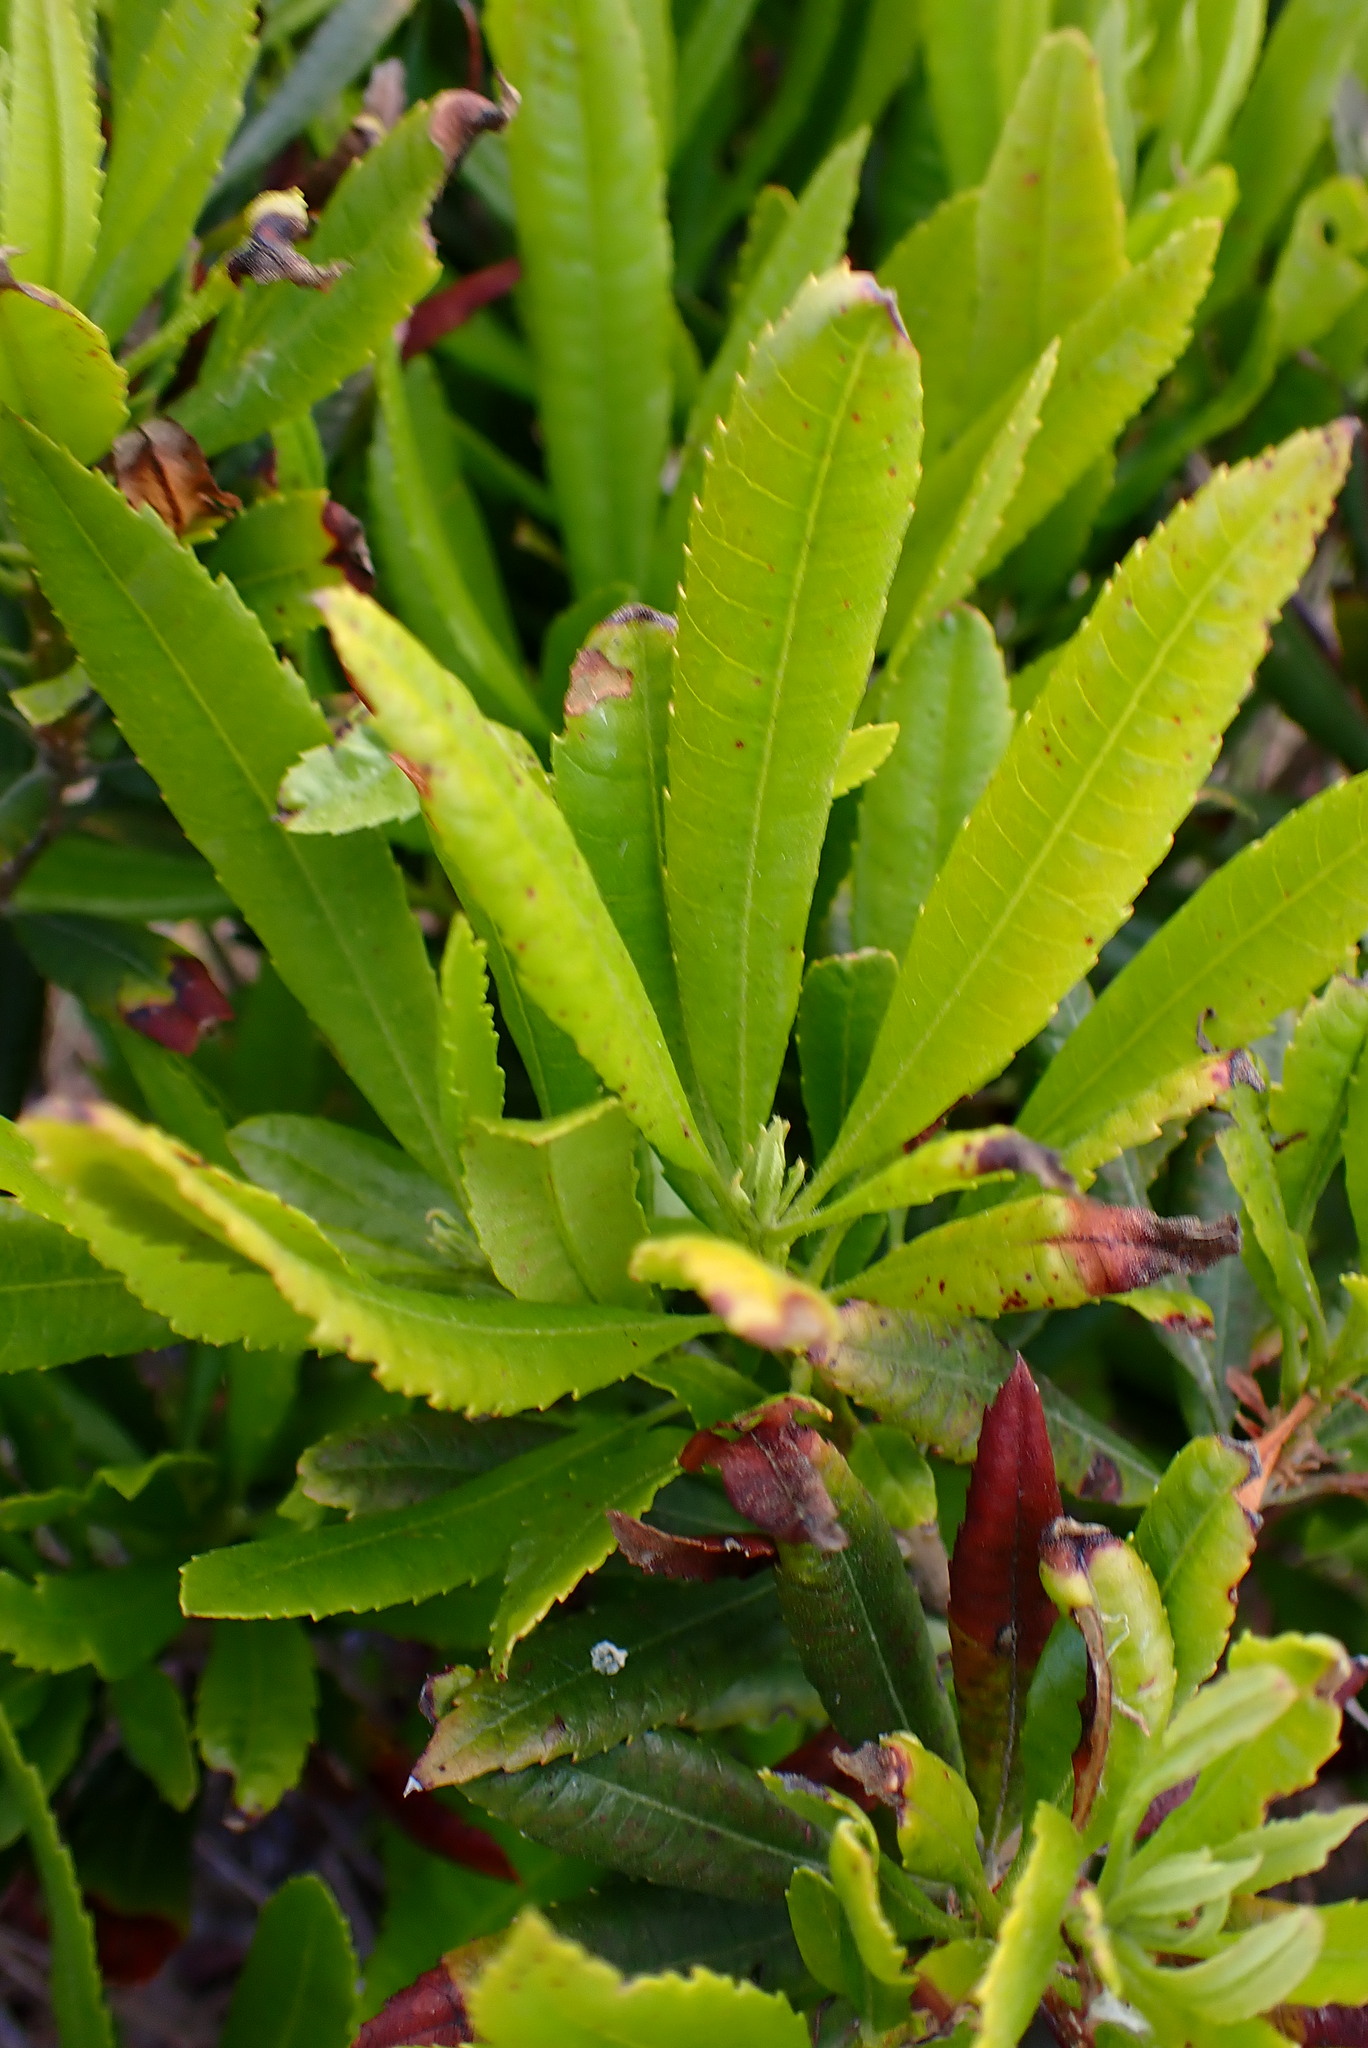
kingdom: Plantae
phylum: Tracheophyta
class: Magnoliopsida
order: Fagales
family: Myricaceae
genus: Morella
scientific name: Morella californica
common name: California wax-myrtle
